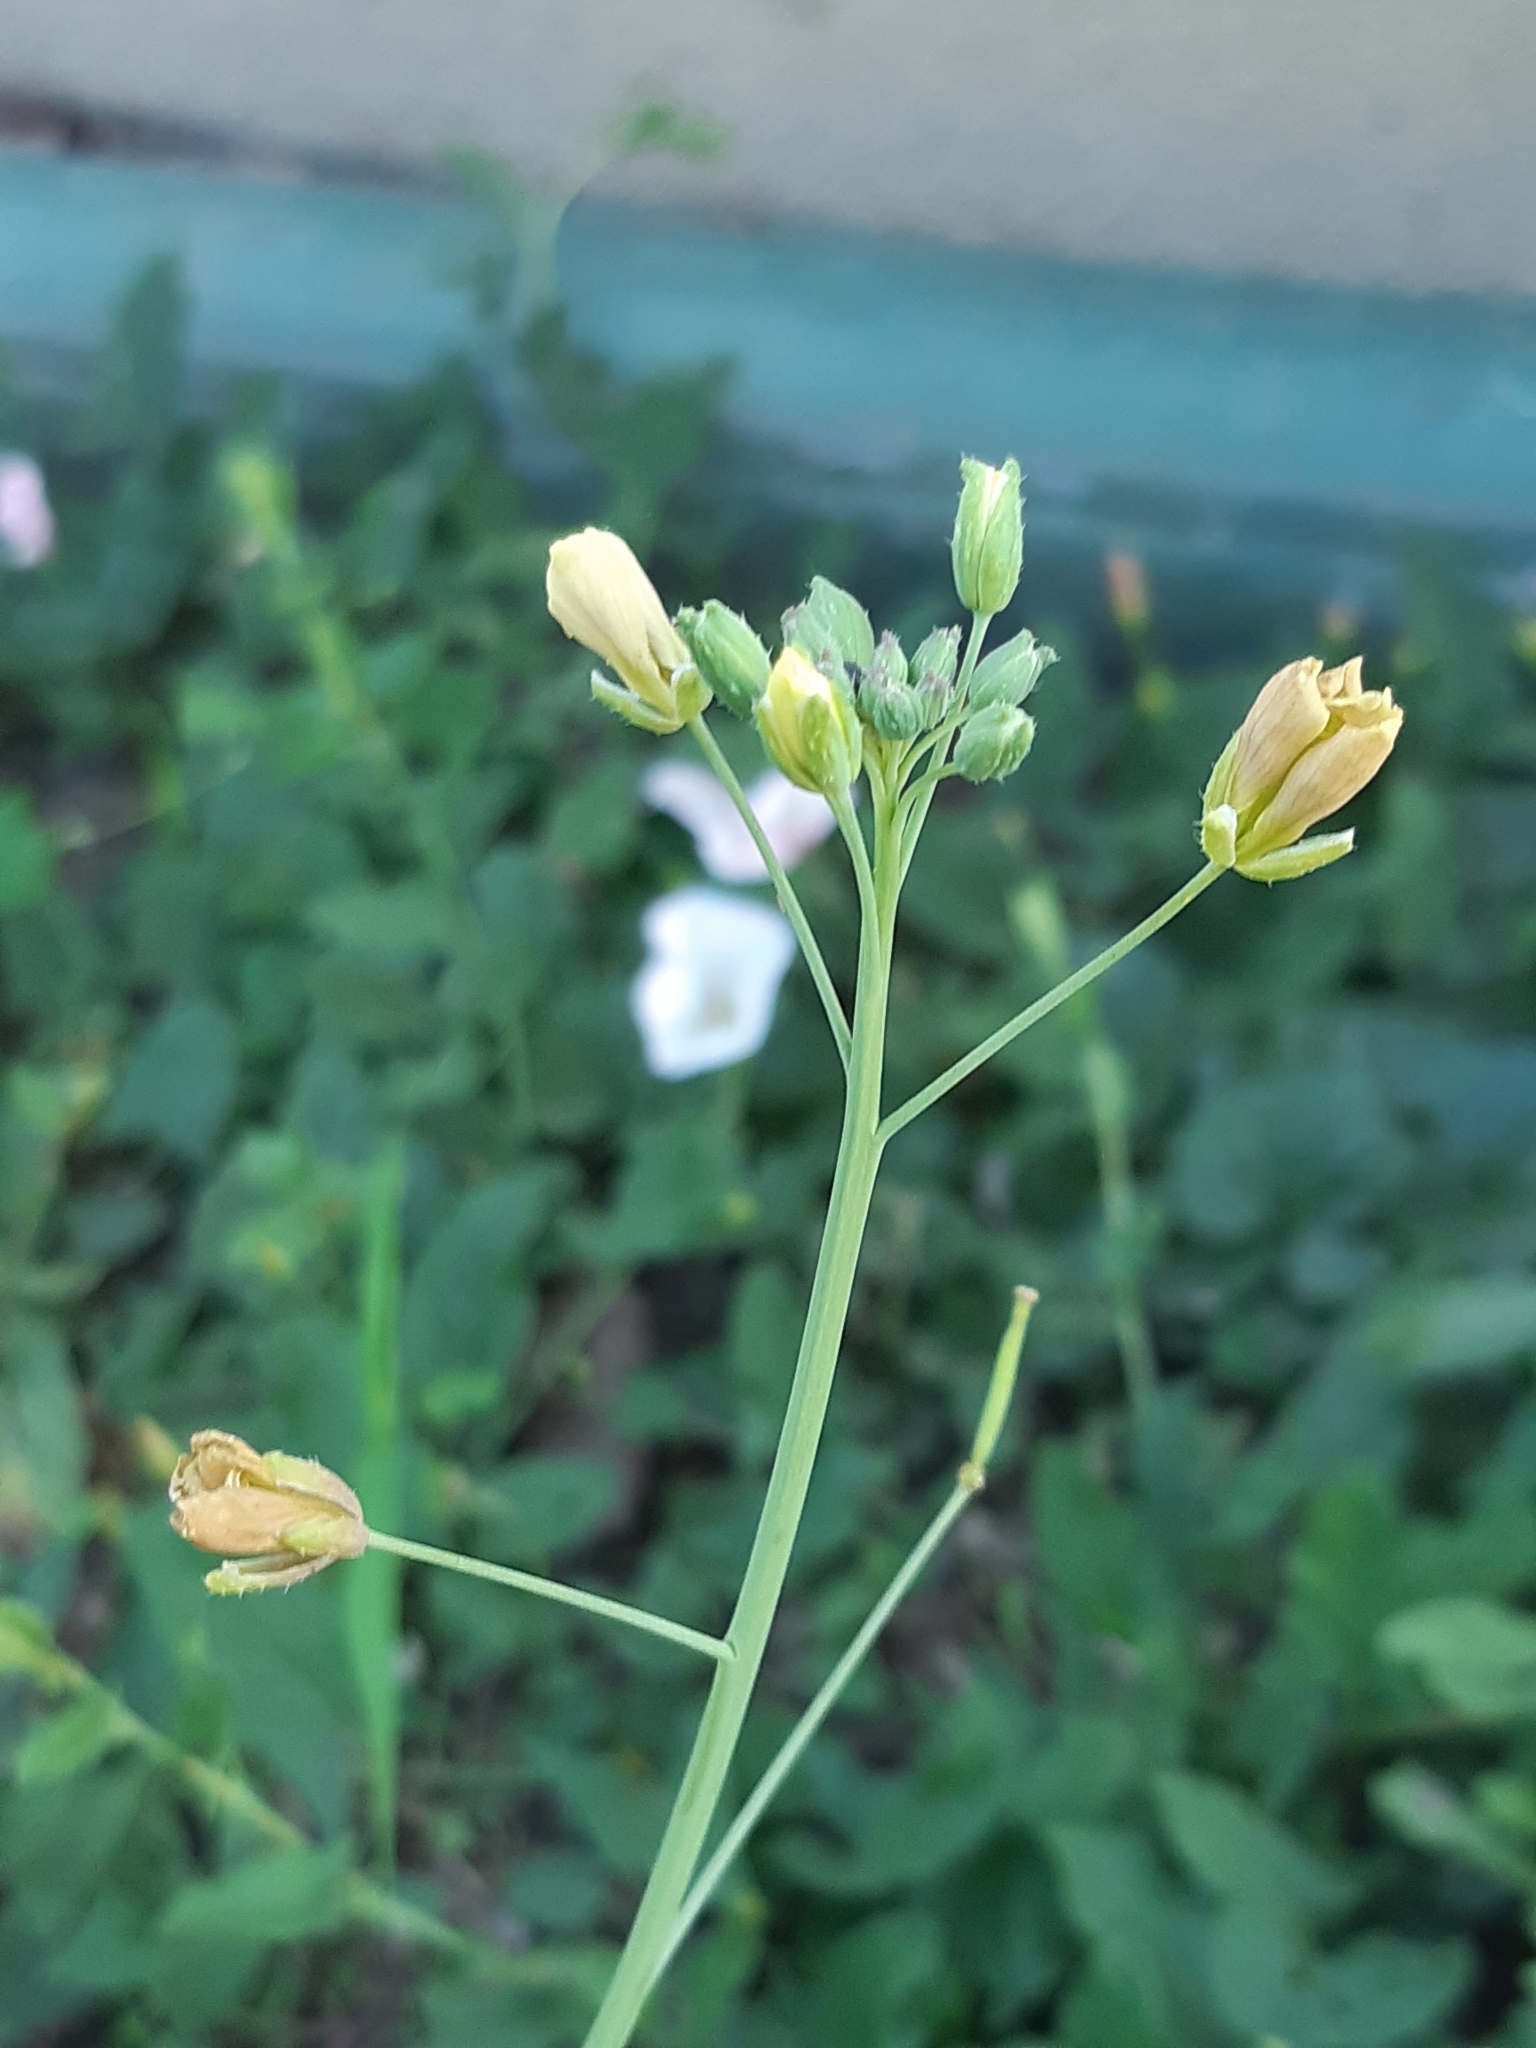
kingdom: Plantae
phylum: Tracheophyta
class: Magnoliopsida
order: Brassicales
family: Brassicaceae
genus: Diplotaxis
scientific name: Diplotaxis tenuifolia
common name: Perennial wall-rocket
